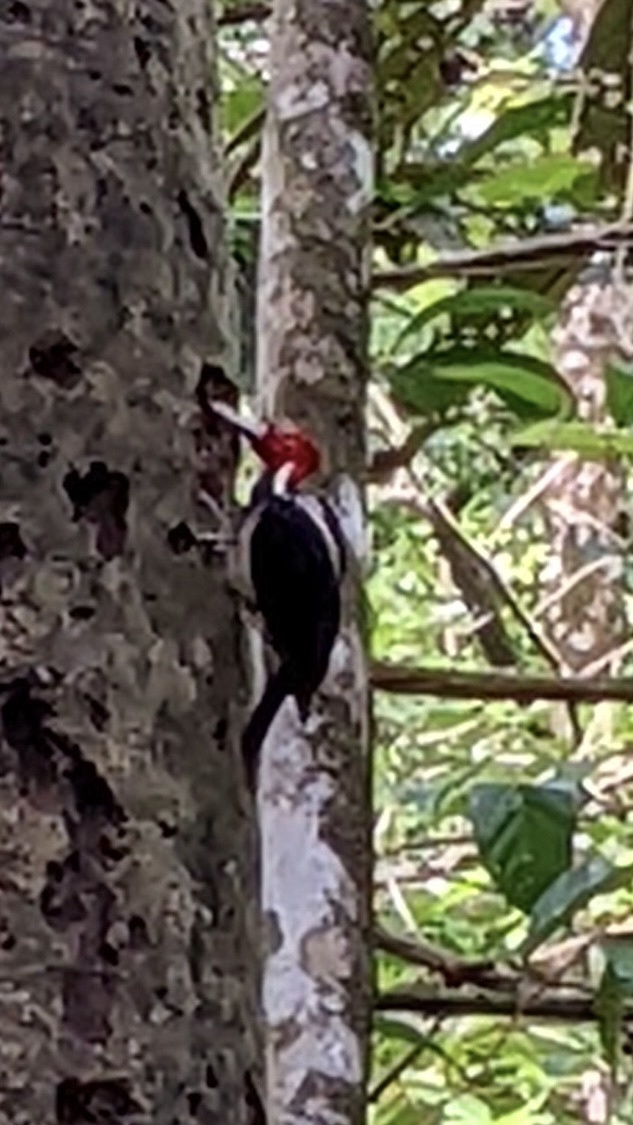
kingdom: Animalia
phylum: Chordata
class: Aves
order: Piciformes
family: Picidae
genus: Campephilus
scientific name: Campephilus guatemalensis
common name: Pale-billed woodpecker
